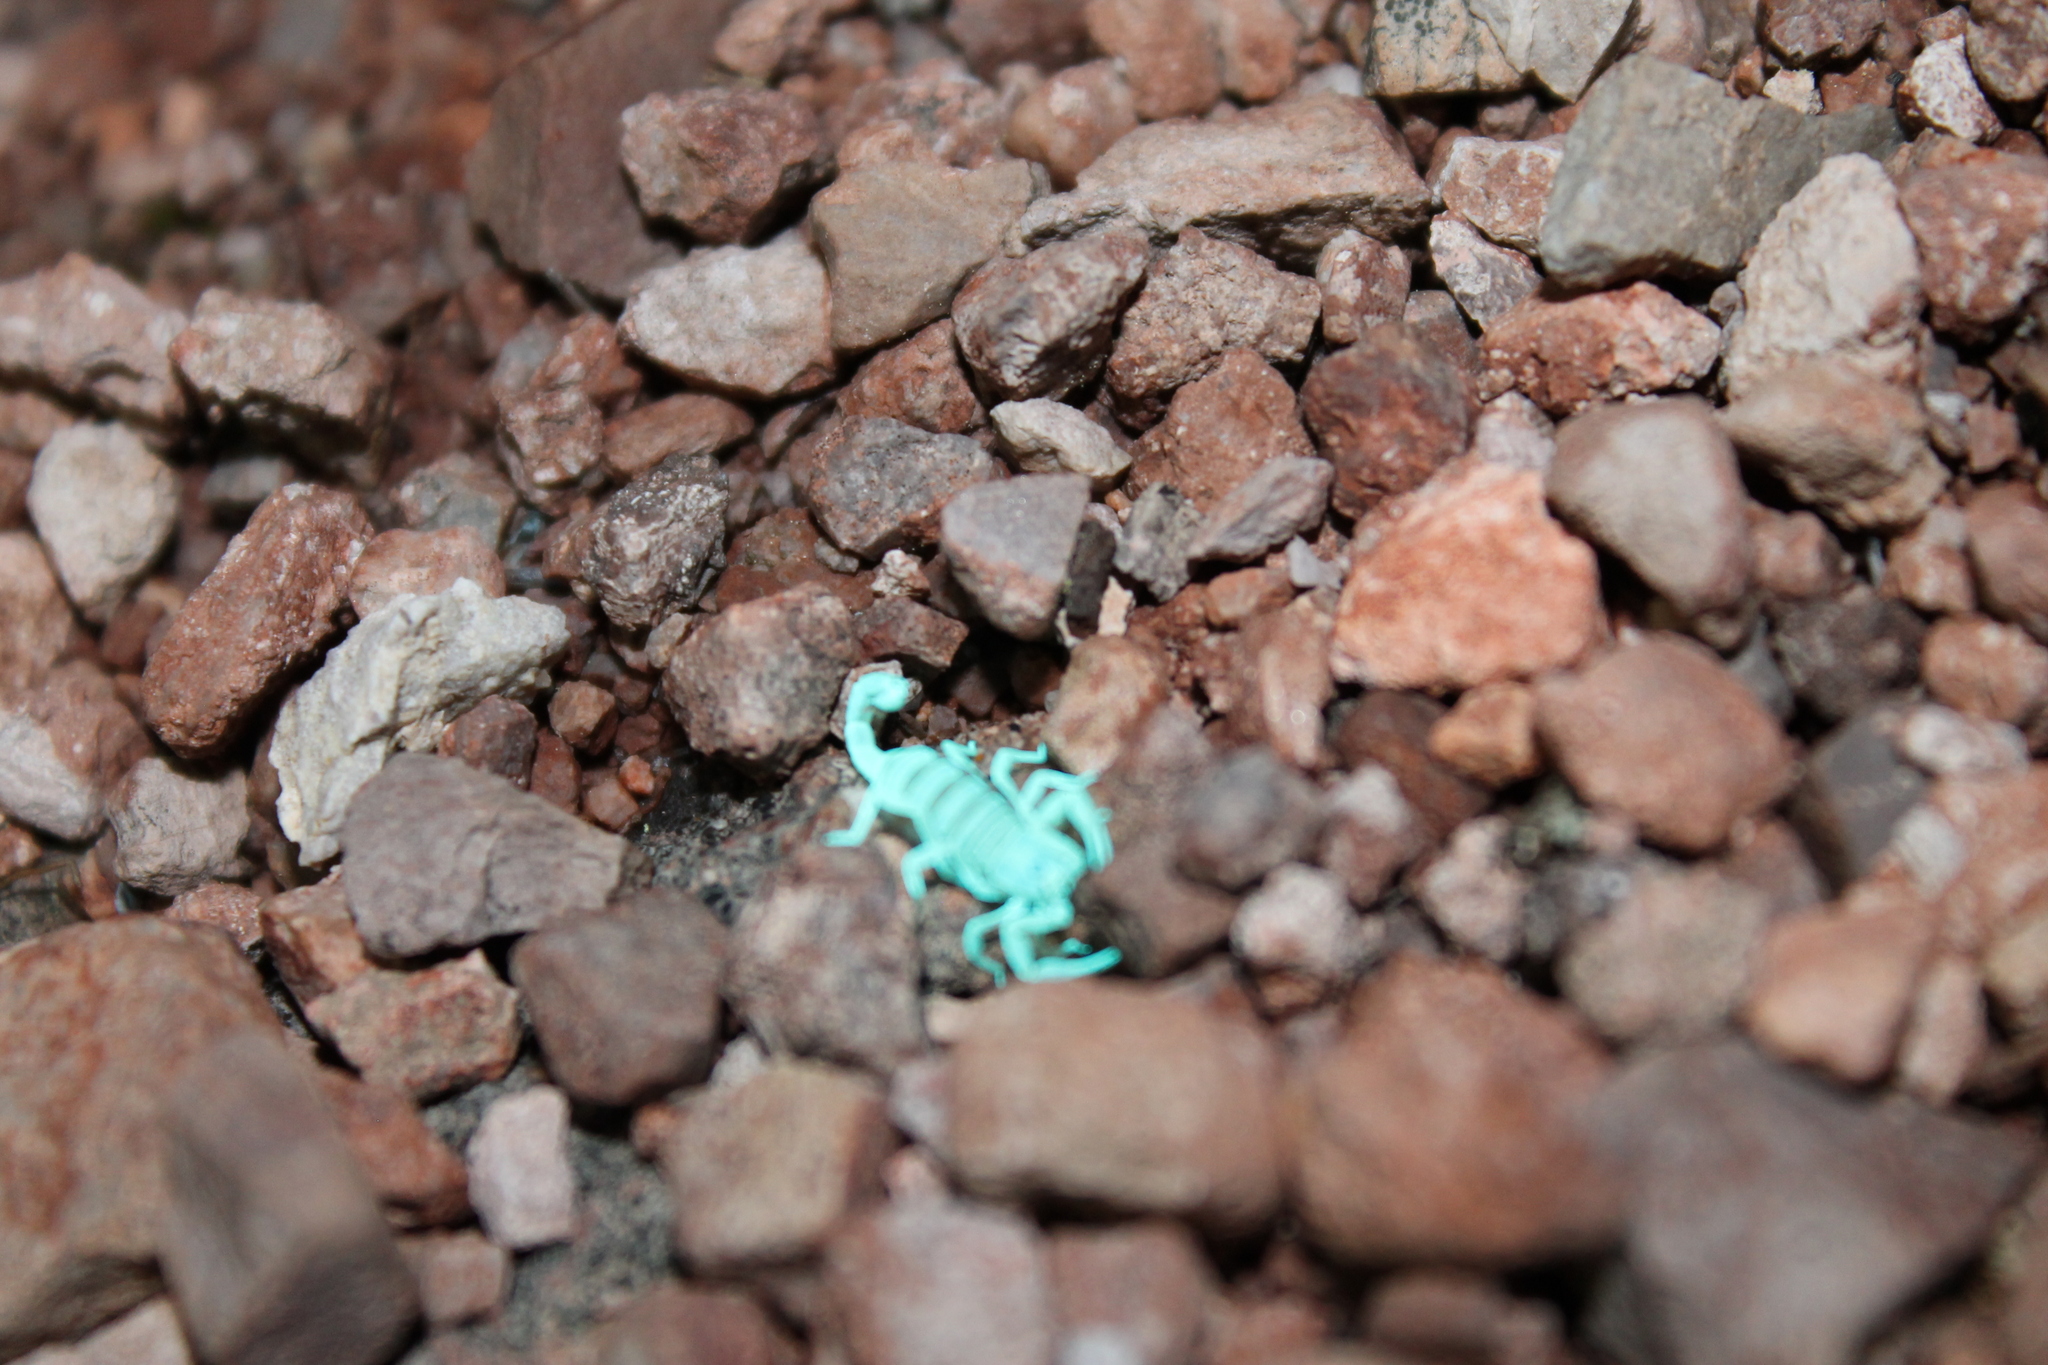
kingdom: Animalia
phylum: Arthropoda
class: Arachnida
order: Scorpiones
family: Vaejovidae
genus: Paruroctonus
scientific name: Paruroctonus variabilis
